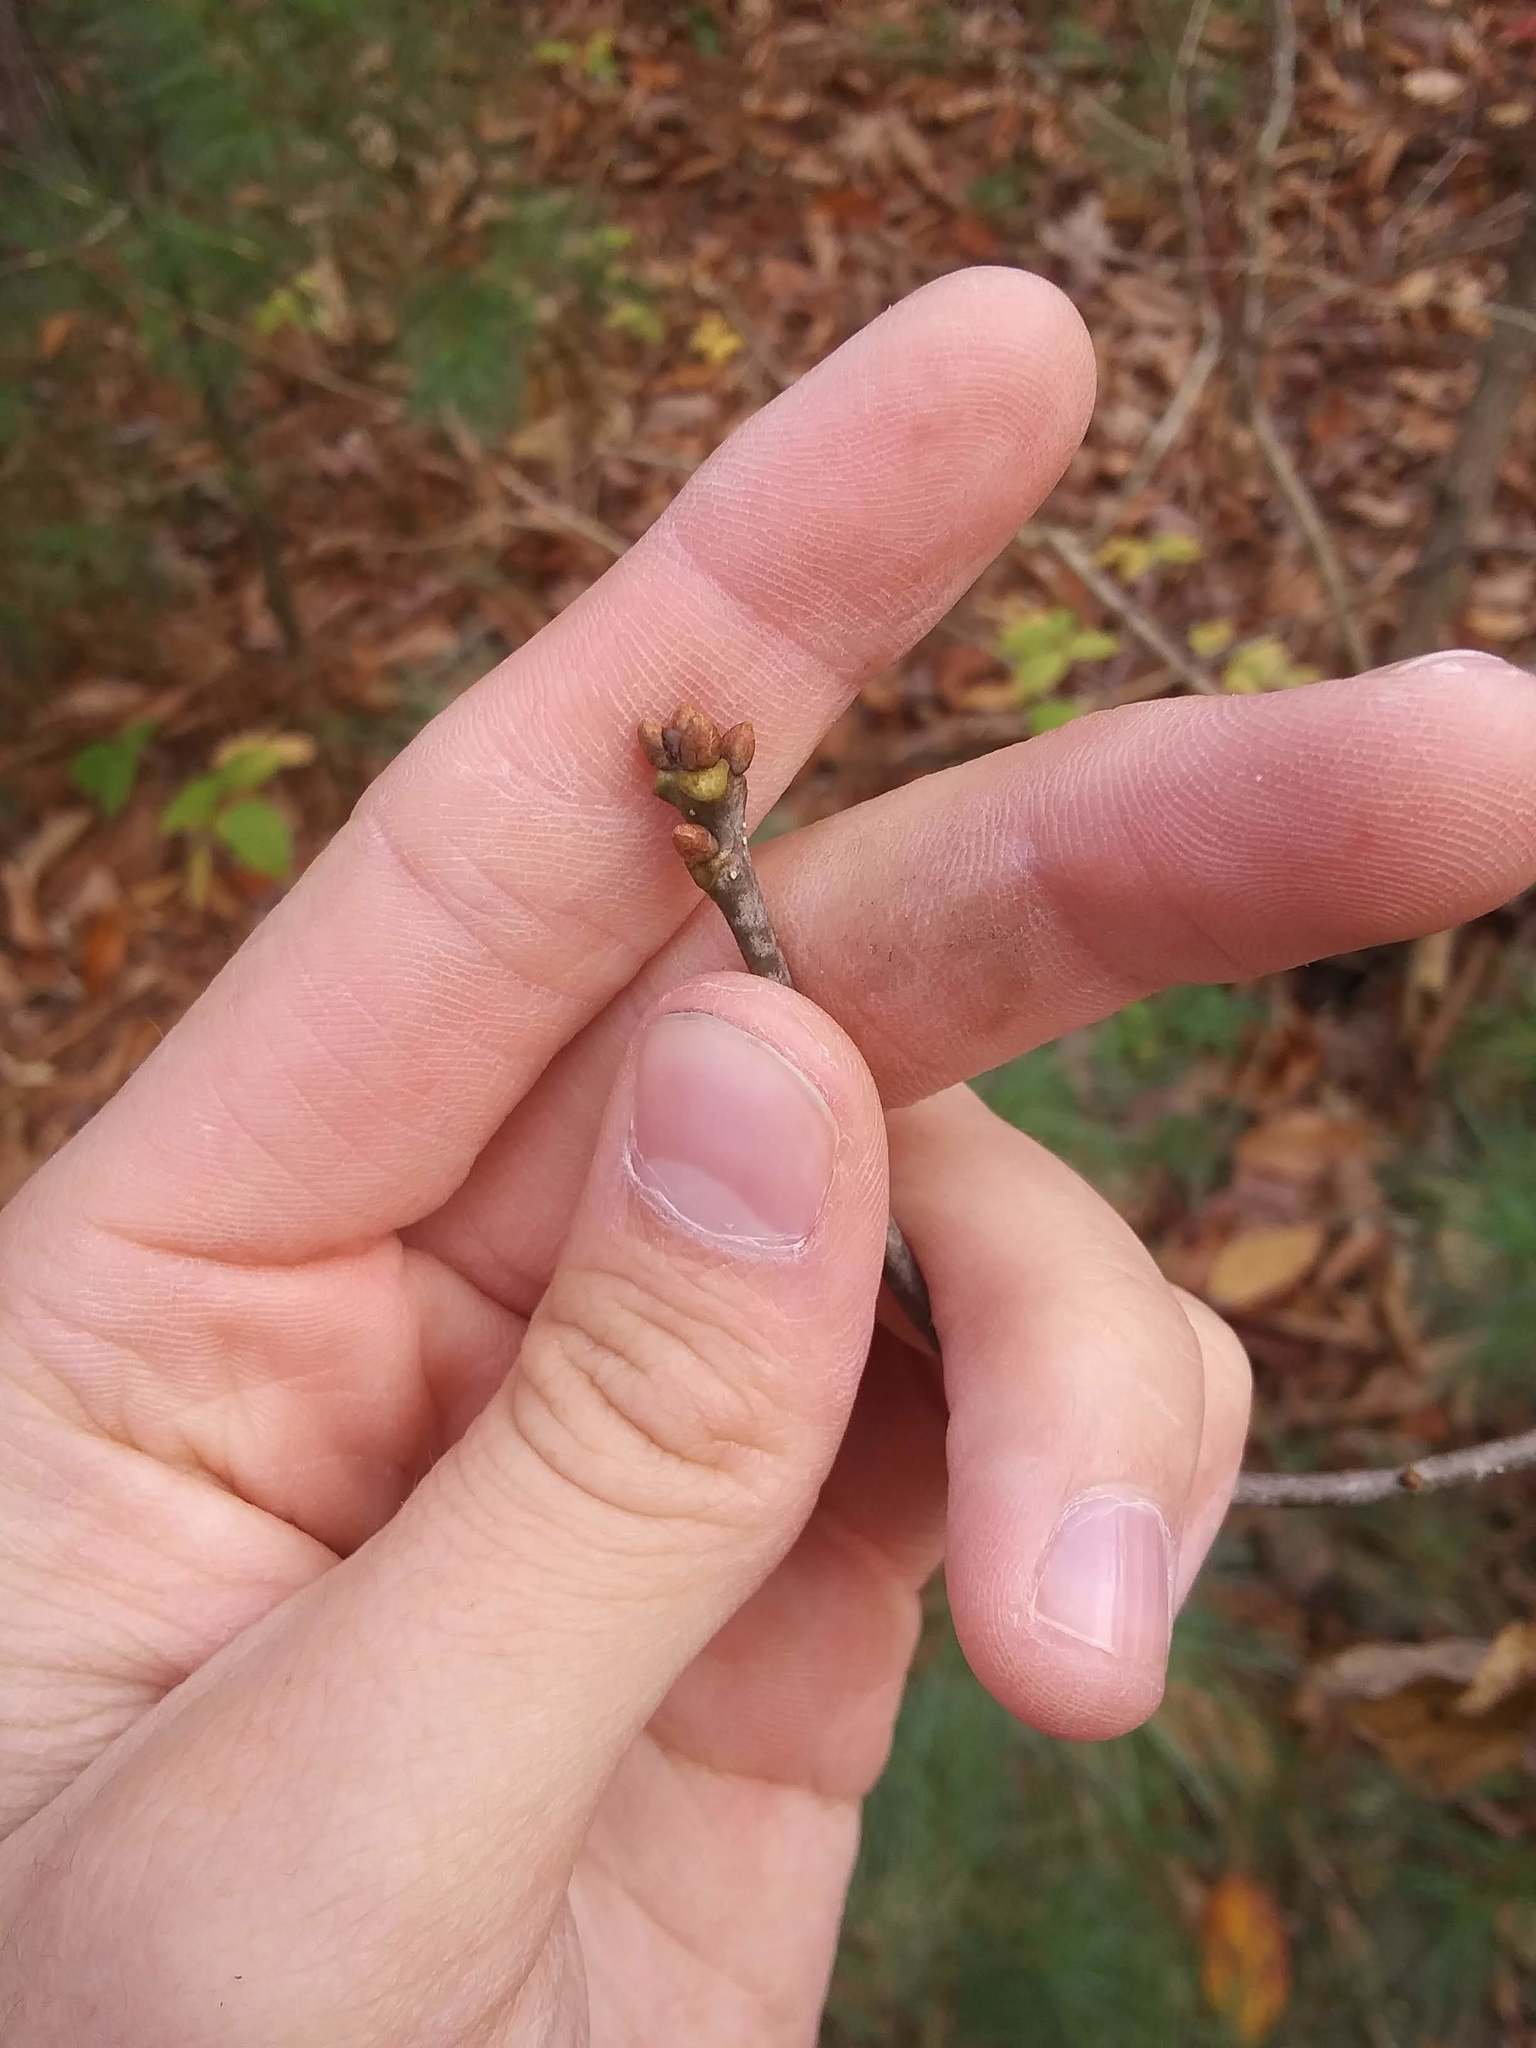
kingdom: Plantae
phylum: Tracheophyta
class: Magnoliopsida
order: Fagales
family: Fagaceae
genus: Quercus
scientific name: Quercus alba
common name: White oak
